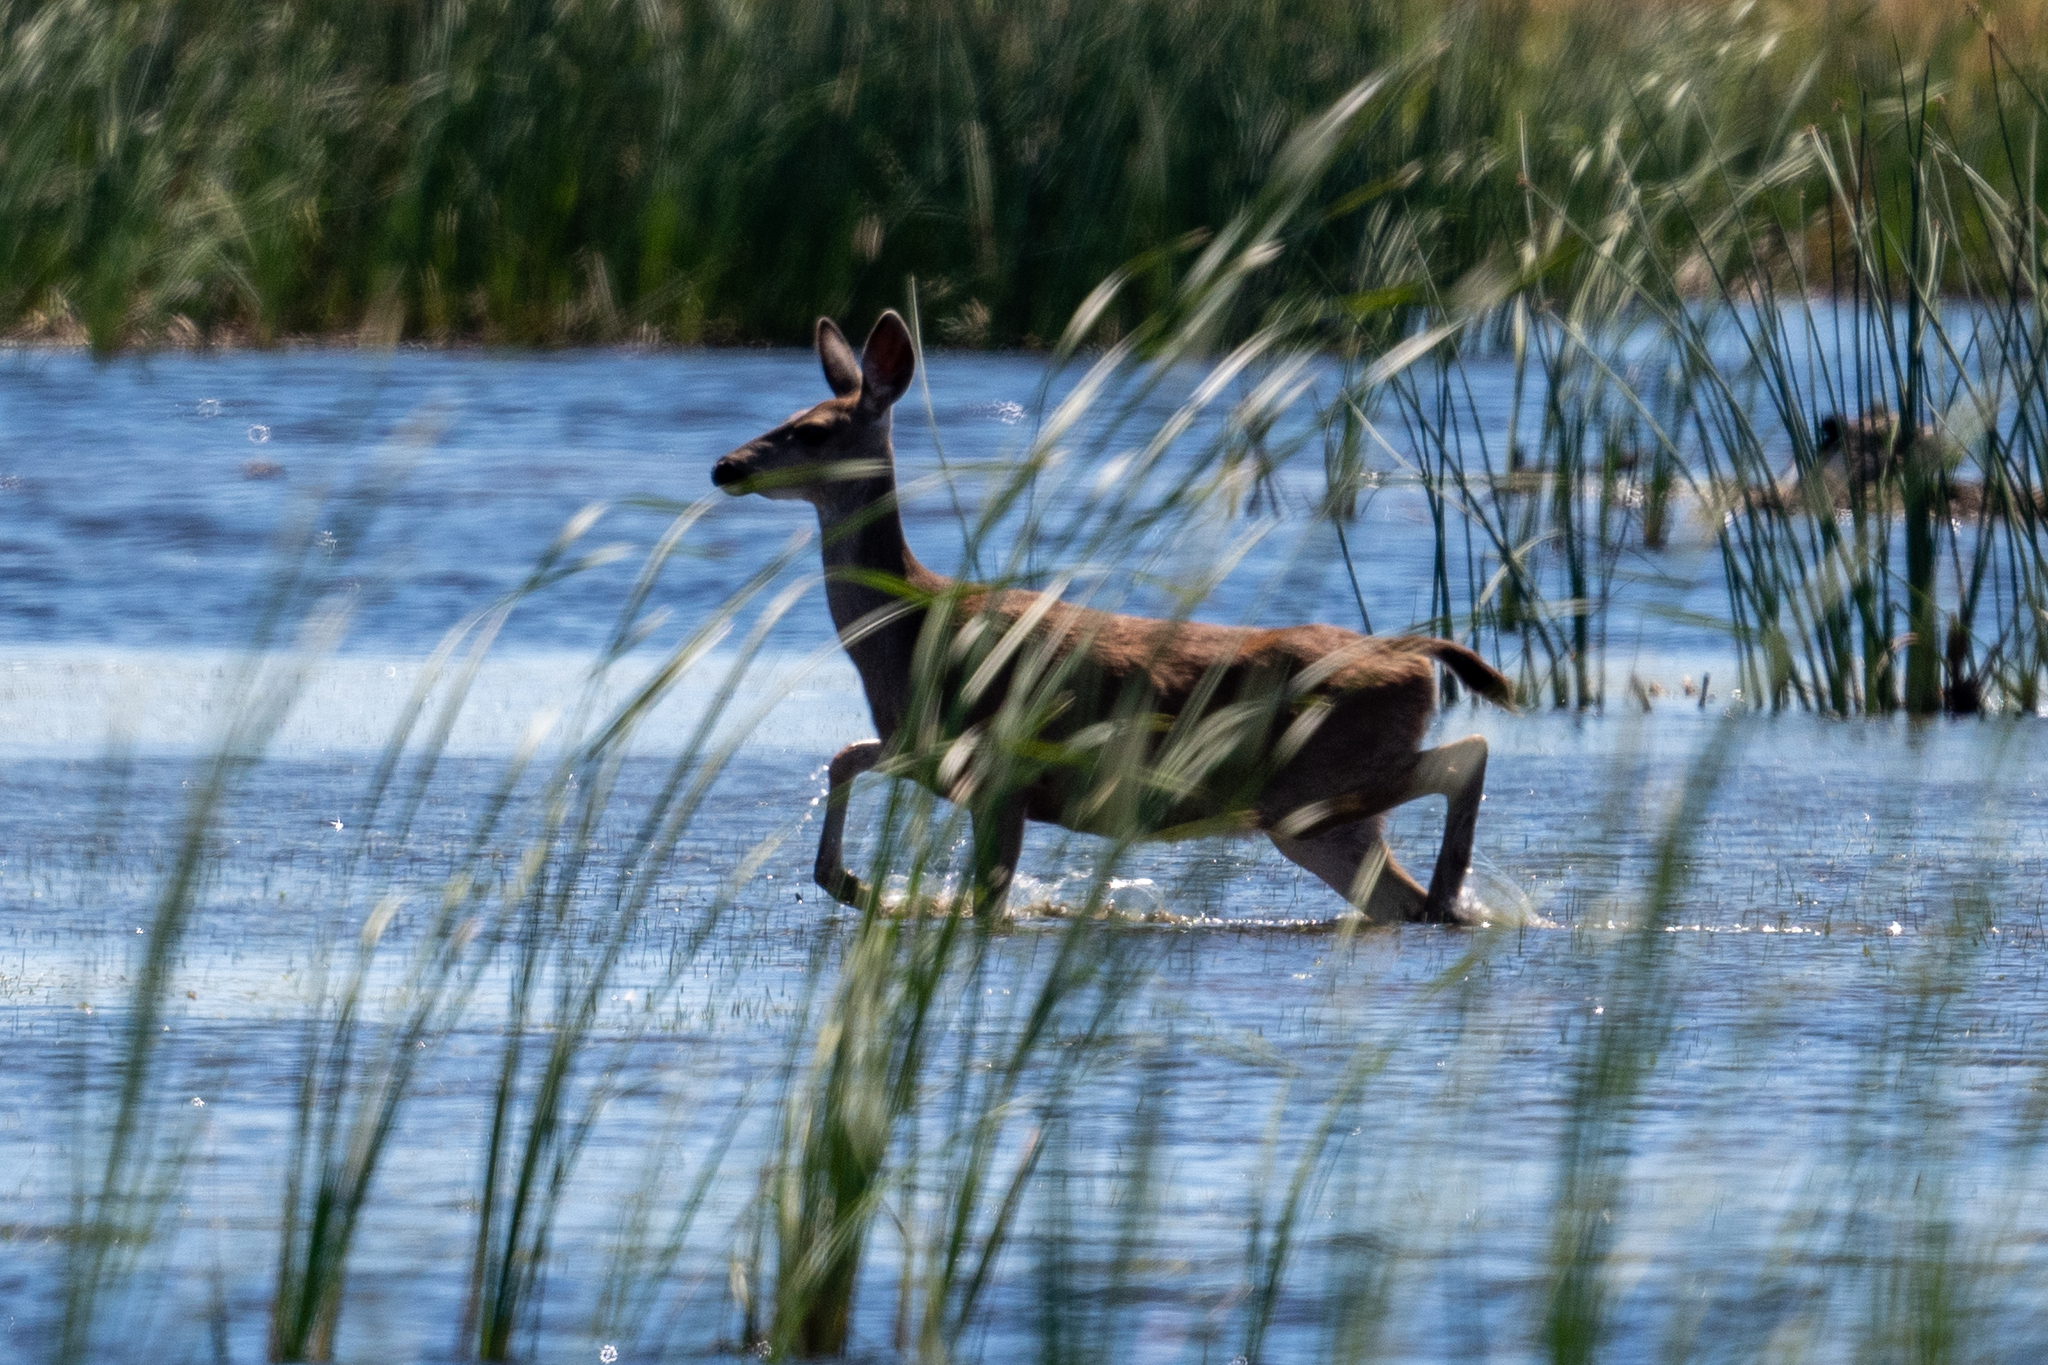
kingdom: Animalia
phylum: Chordata
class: Mammalia
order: Artiodactyla
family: Cervidae
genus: Odocoileus
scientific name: Odocoileus hemionus
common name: Mule deer
